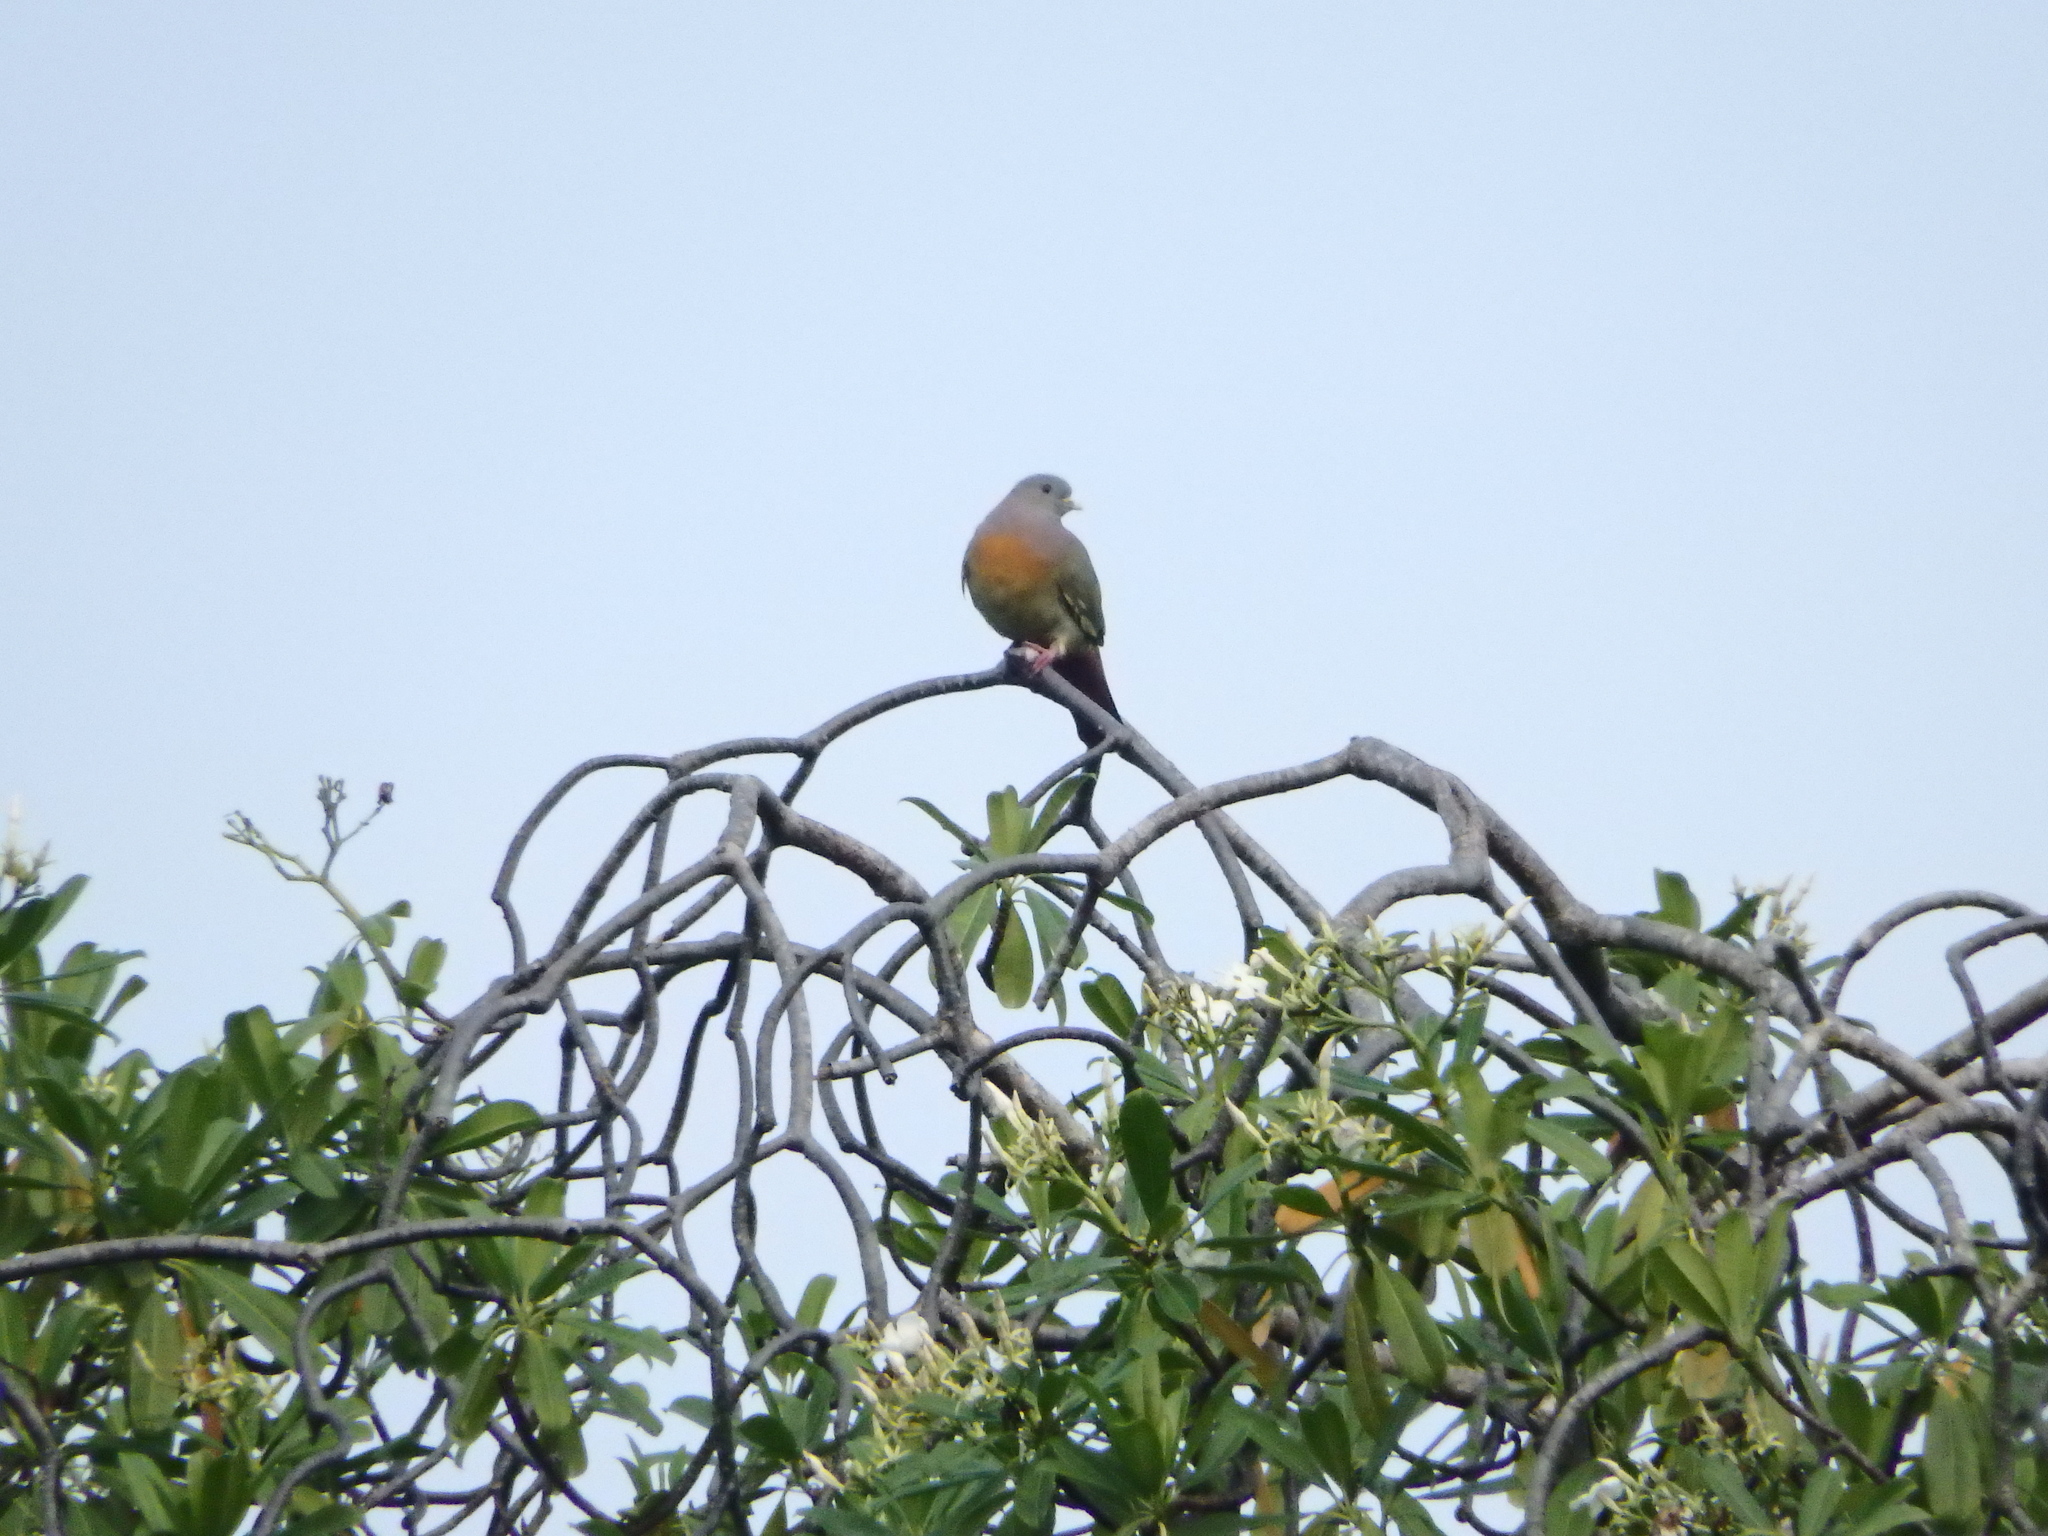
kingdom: Animalia
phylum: Chordata
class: Aves
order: Columbiformes
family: Columbidae
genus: Treron
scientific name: Treron vernans
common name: Pink-necked green pigeon
